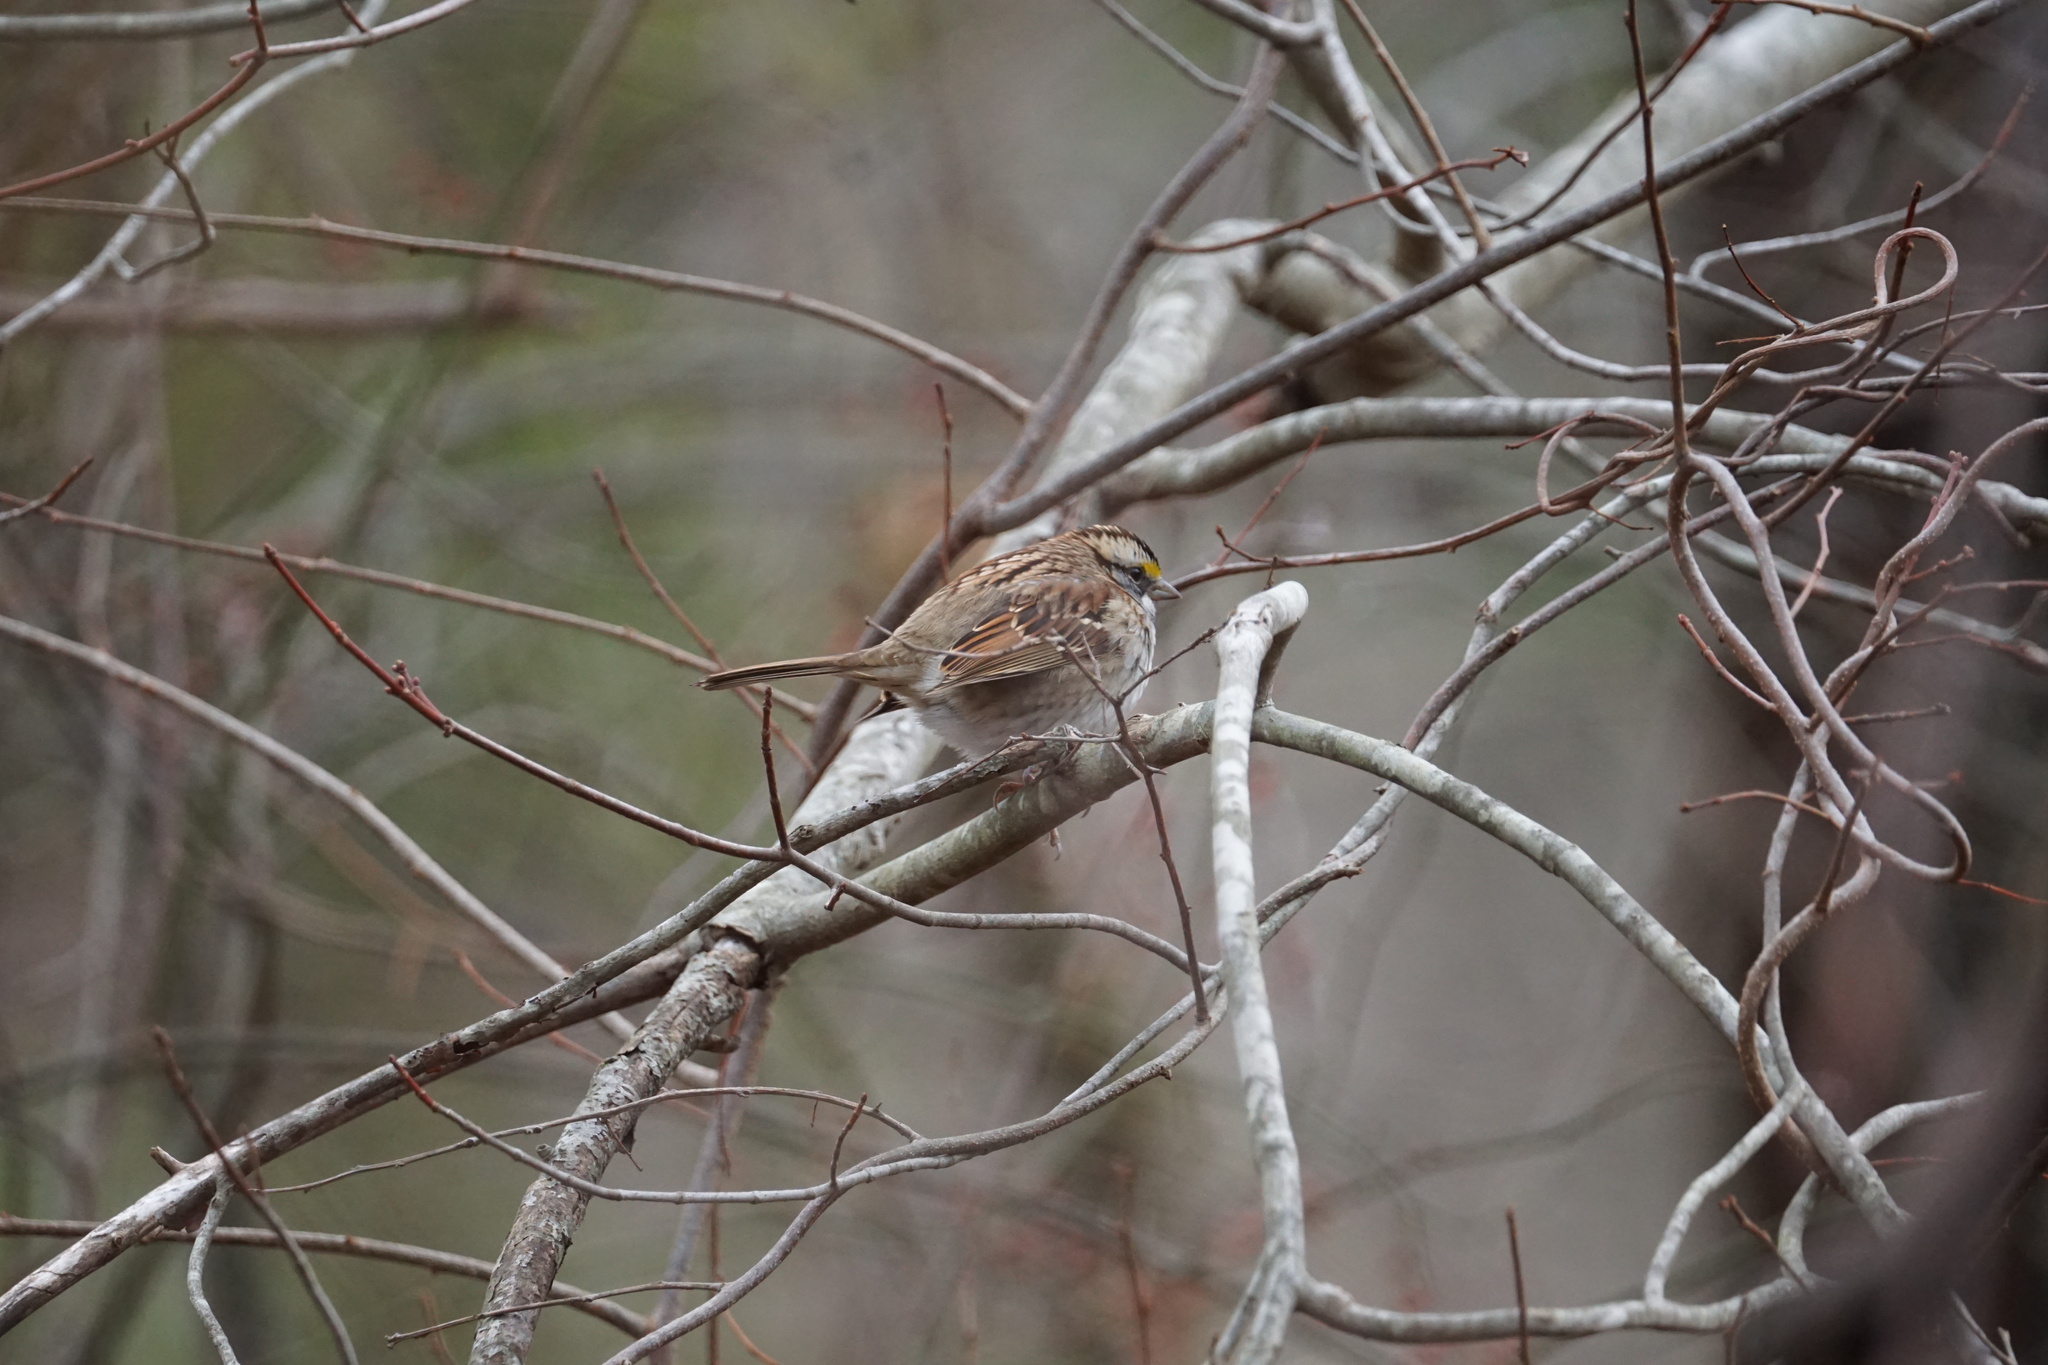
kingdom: Animalia
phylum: Chordata
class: Aves
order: Passeriformes
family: Passerellidae
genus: Zonotrichia
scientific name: Zonotrichia albicollis
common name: White-throated sparrow
